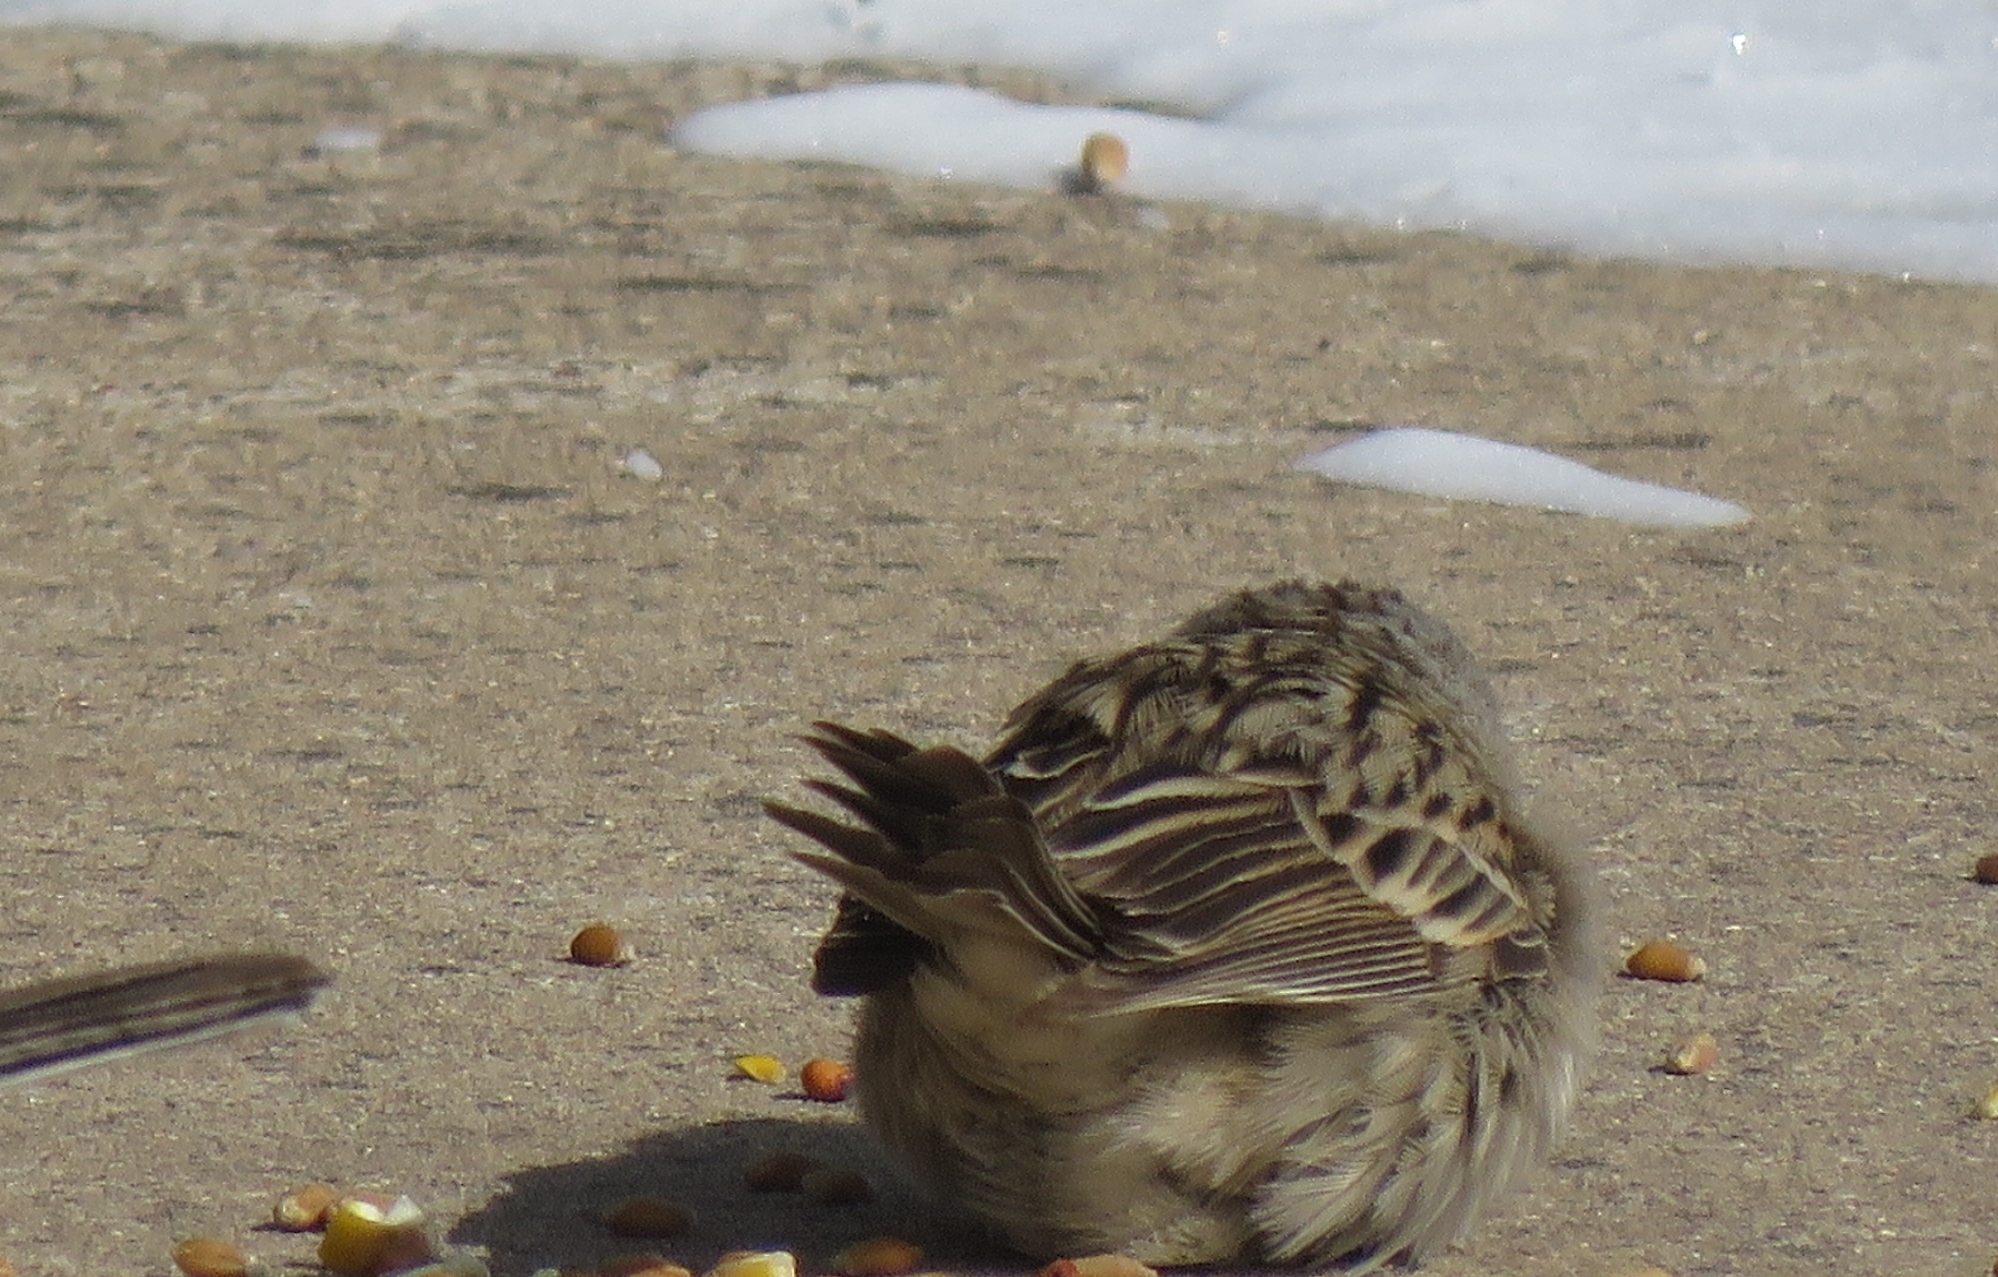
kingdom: Animalia
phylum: Chordata
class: Aves
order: Passeriformes
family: Passerellidae
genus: Spizella
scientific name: Spizella breweri
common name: Brewer's sparrow
